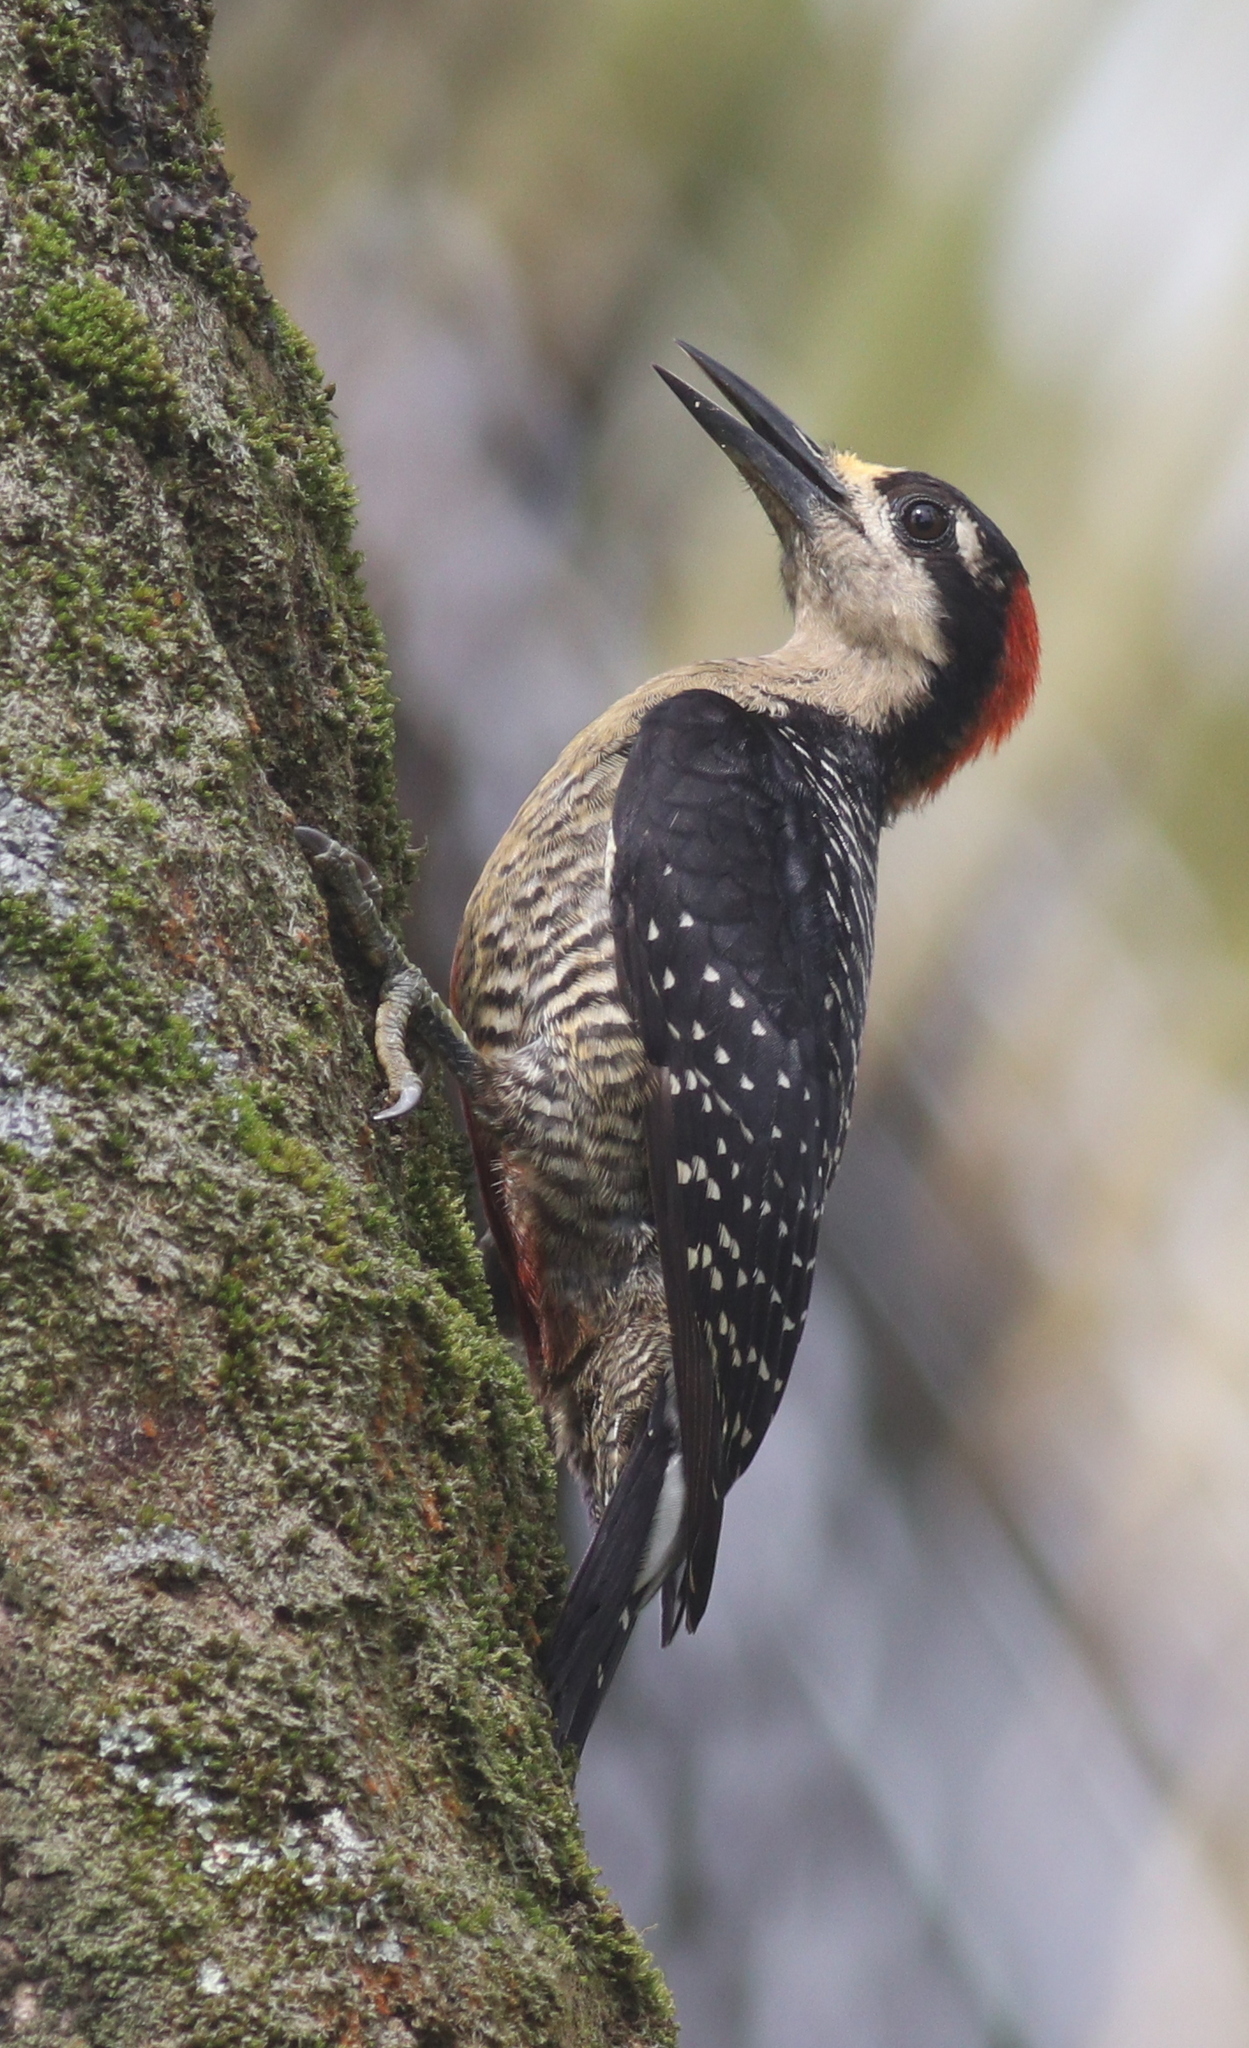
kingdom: Animalia
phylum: Chordata
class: Aves
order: Piciformes
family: Picidae
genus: Melanerpes
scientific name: Melanerpes pucherani
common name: Black-cheeked woodpecker
